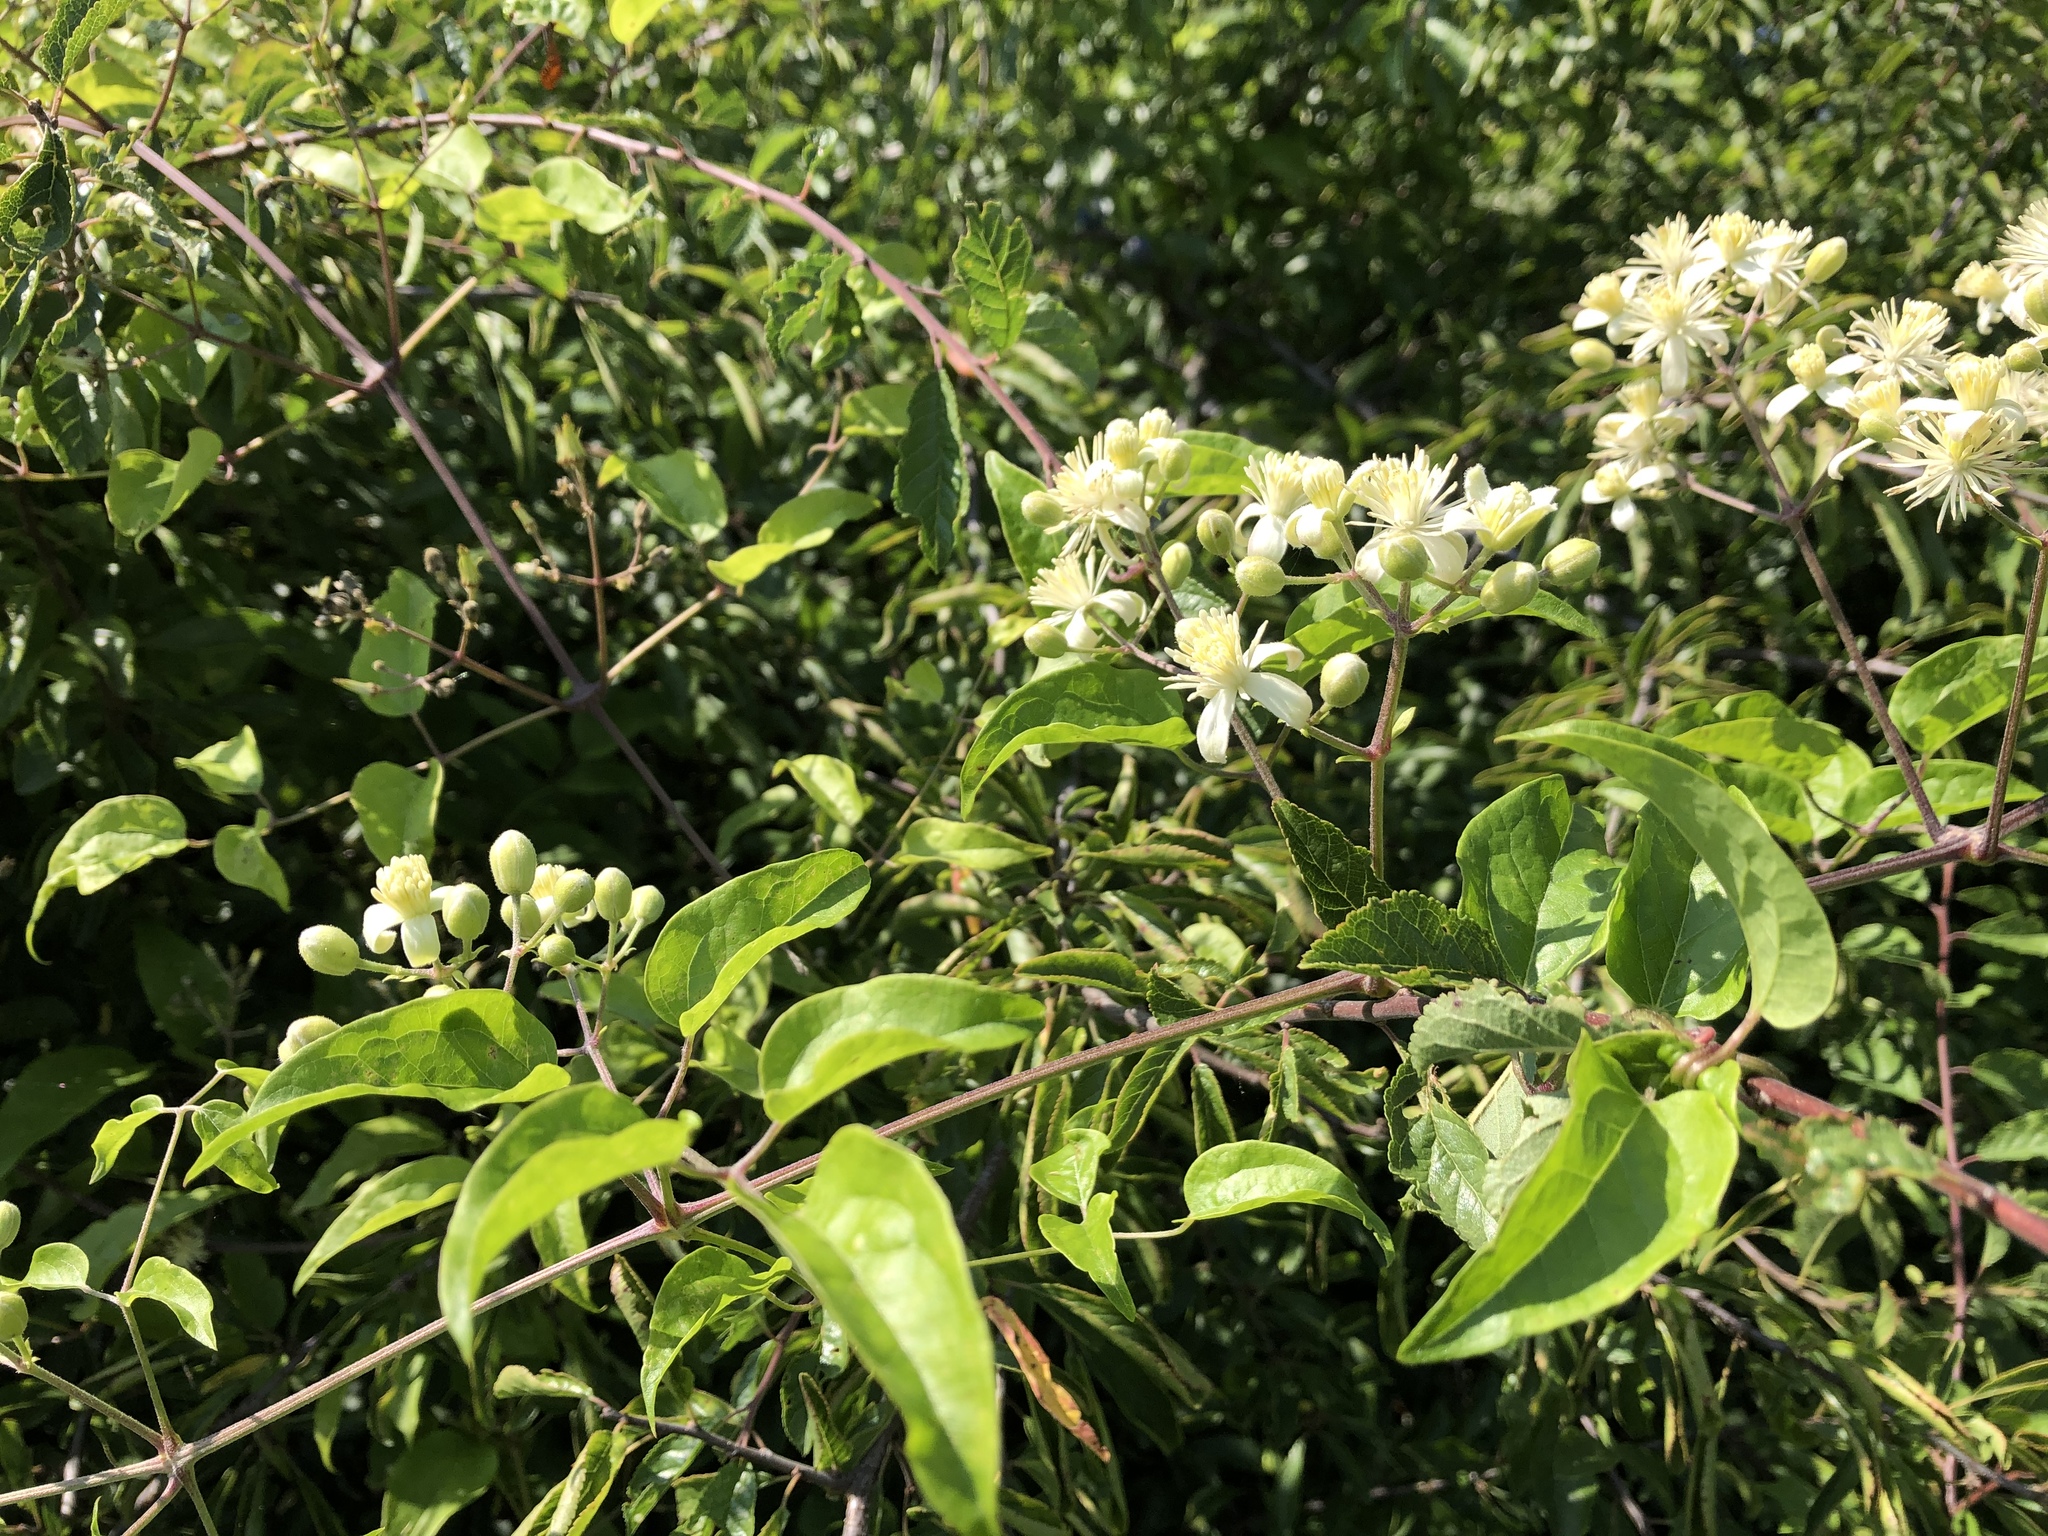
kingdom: Plantae
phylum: Tracheophyta
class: Magnoliopsida
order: Ranunculales
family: Ranunculaceae
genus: Clematis
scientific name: Clematis vitalba
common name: Evergreen clematis
